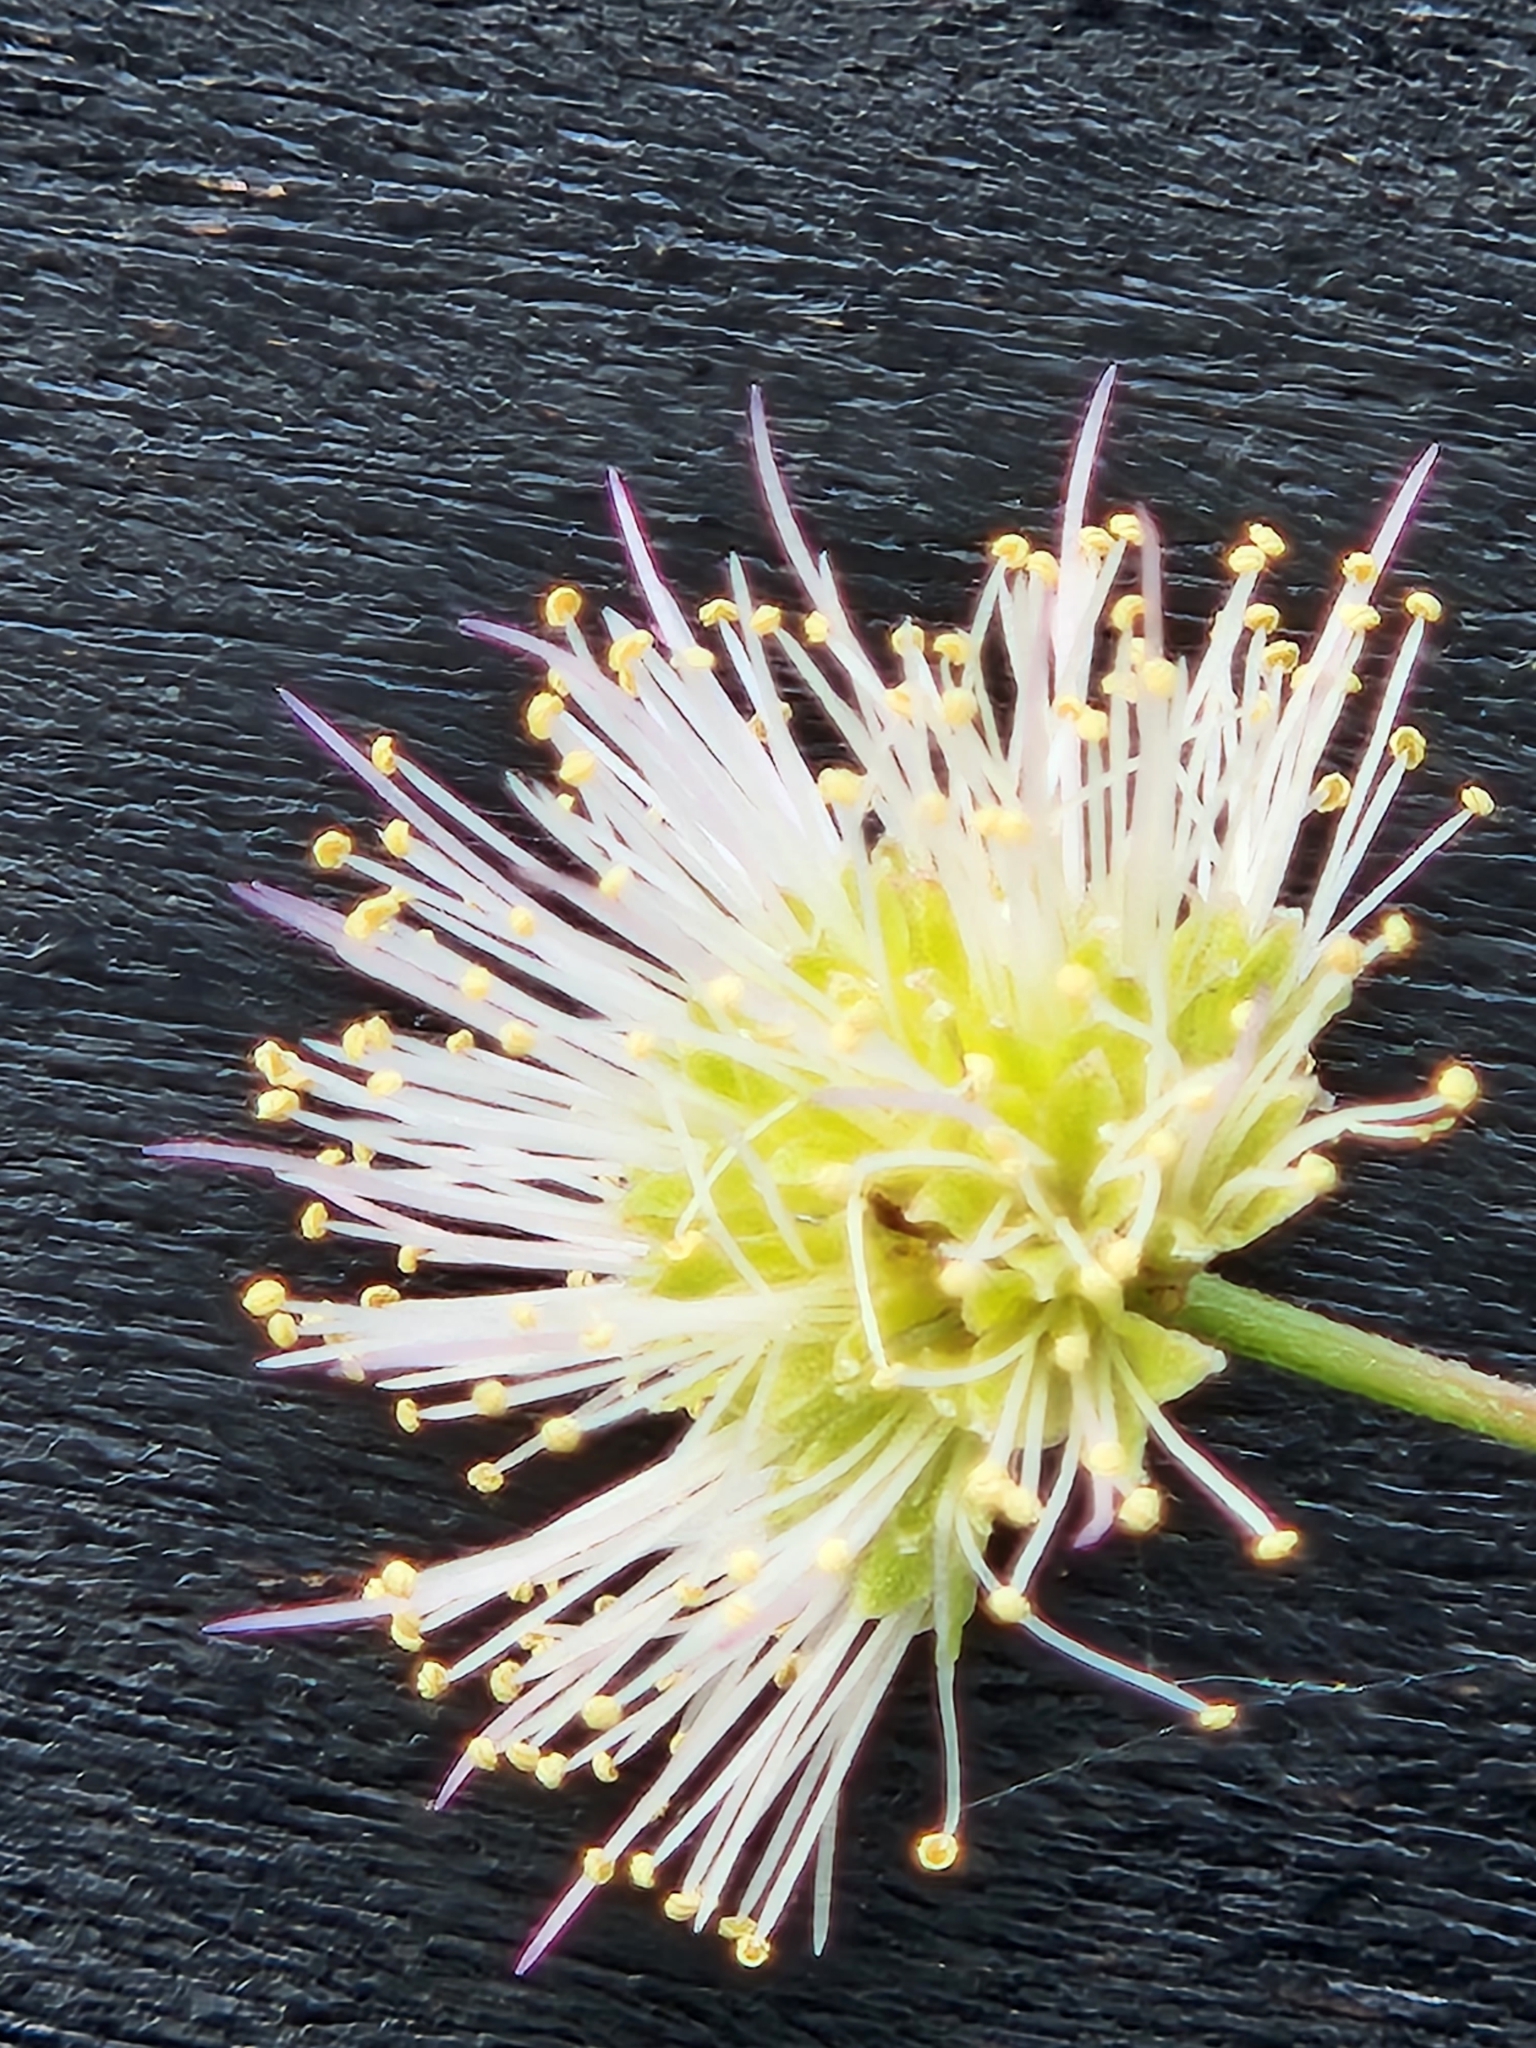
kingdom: Plantae
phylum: Tracheophyta
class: Magnoliopsida
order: Fabales
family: Fabaceae
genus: Mimosa
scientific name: Mimosa texana
